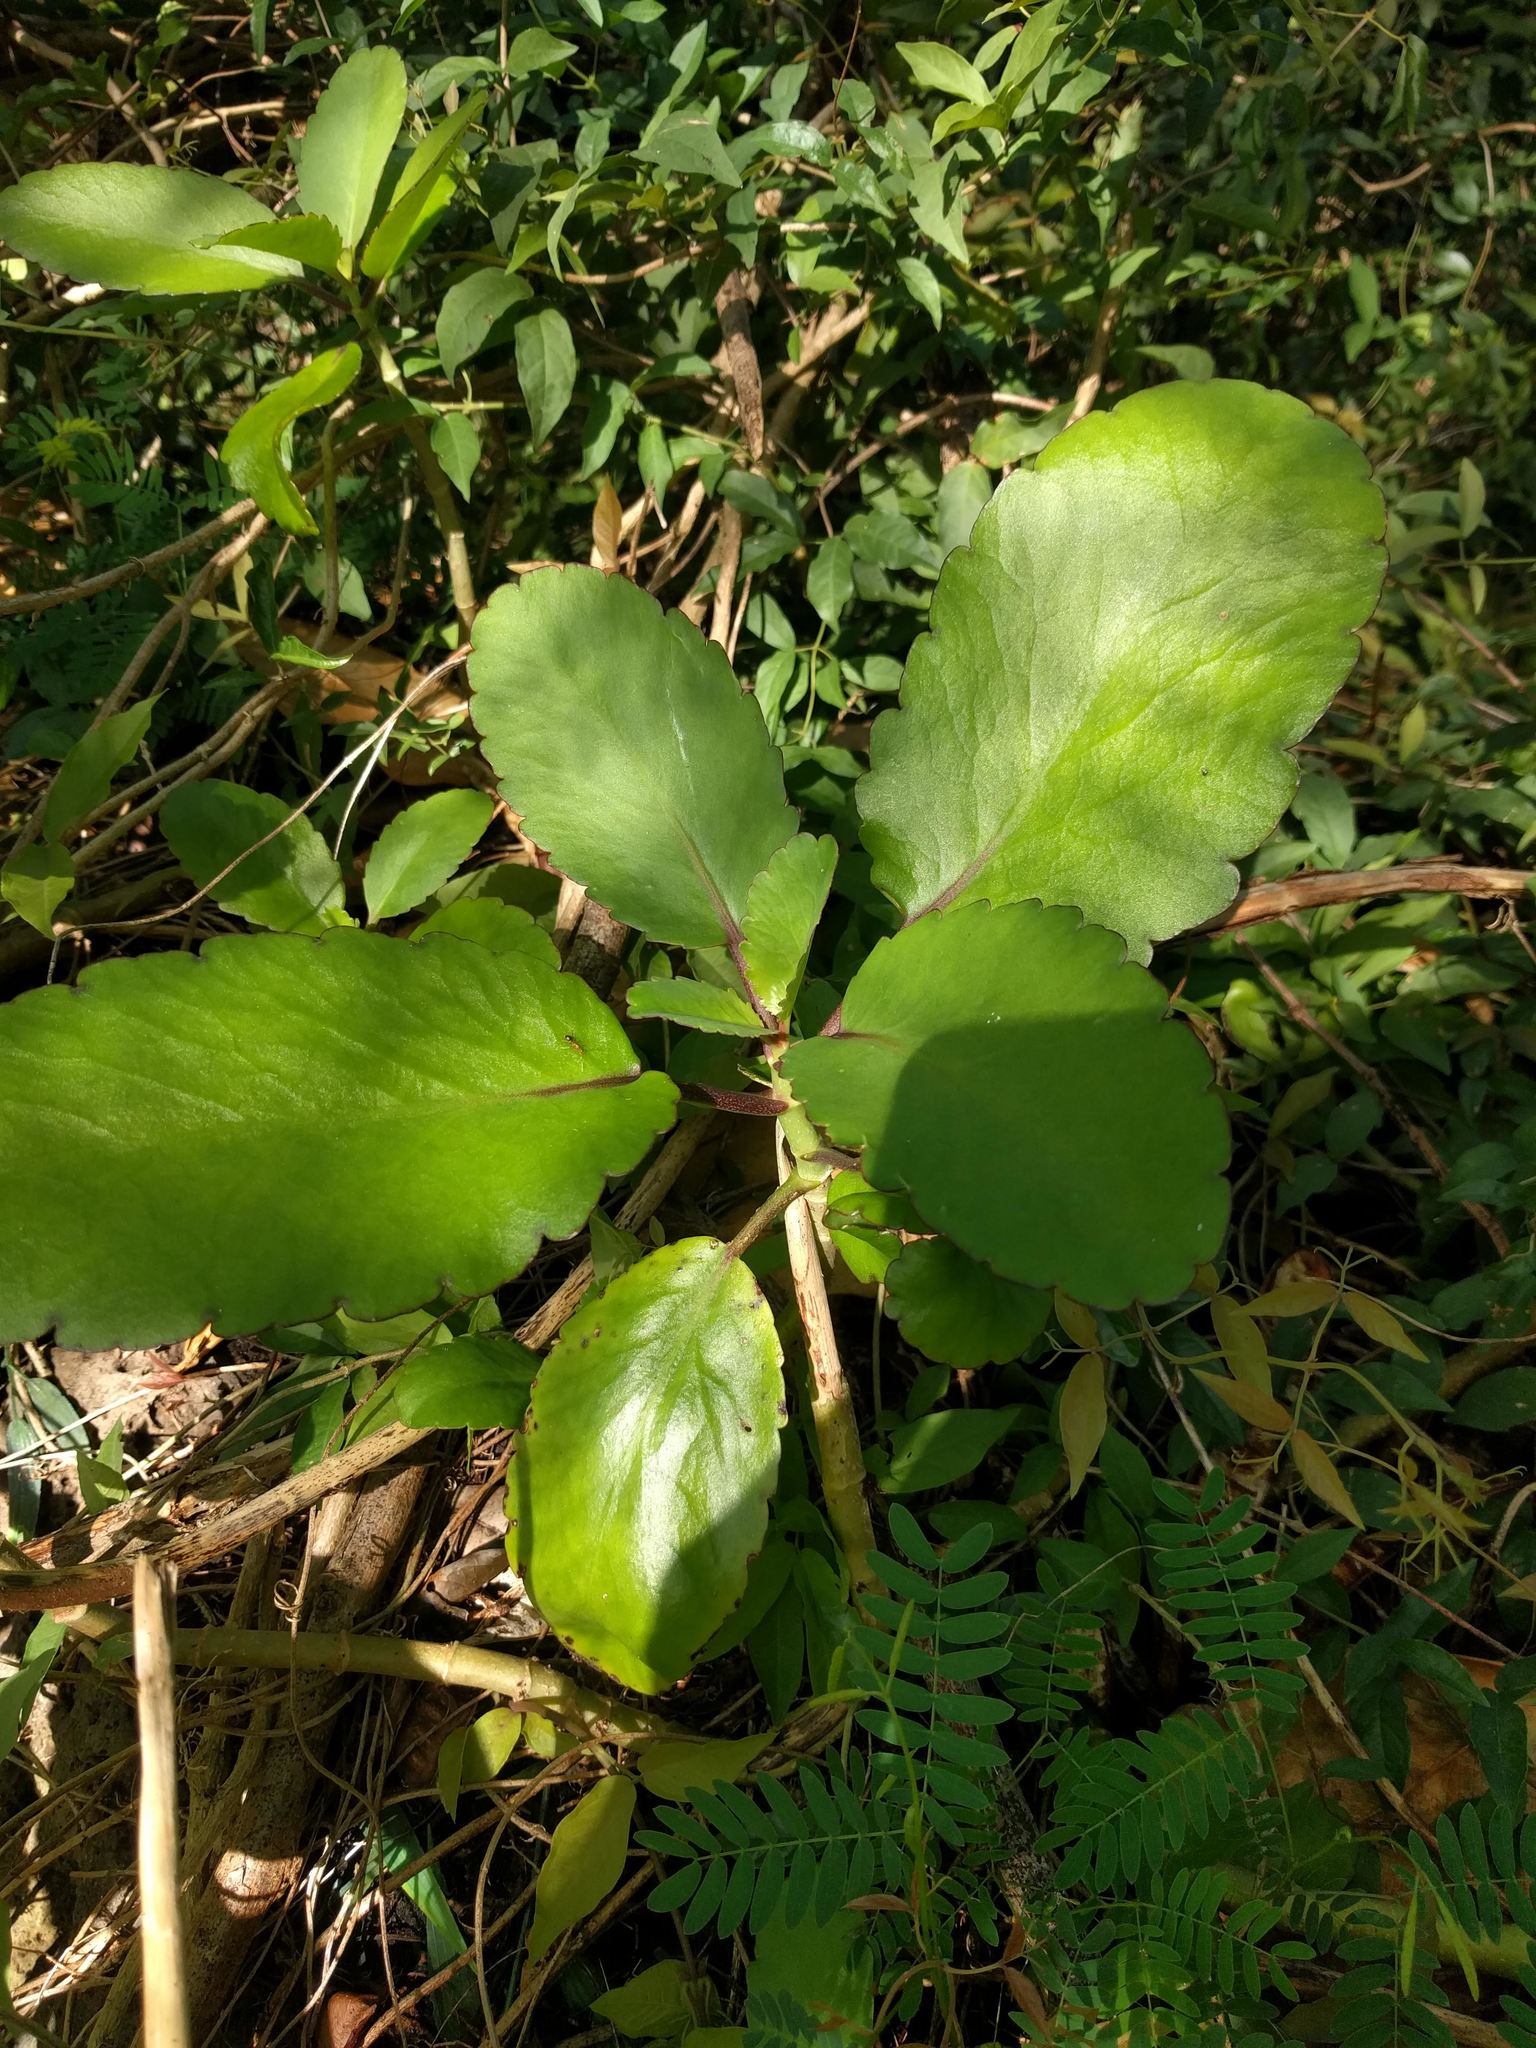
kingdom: Plantae
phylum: Tracheophyta
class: Magnoliopsida
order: Saxifragales
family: Crassulaceae
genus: Kalanchoe
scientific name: Kalanchoe pinnata
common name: Cathedral bells
